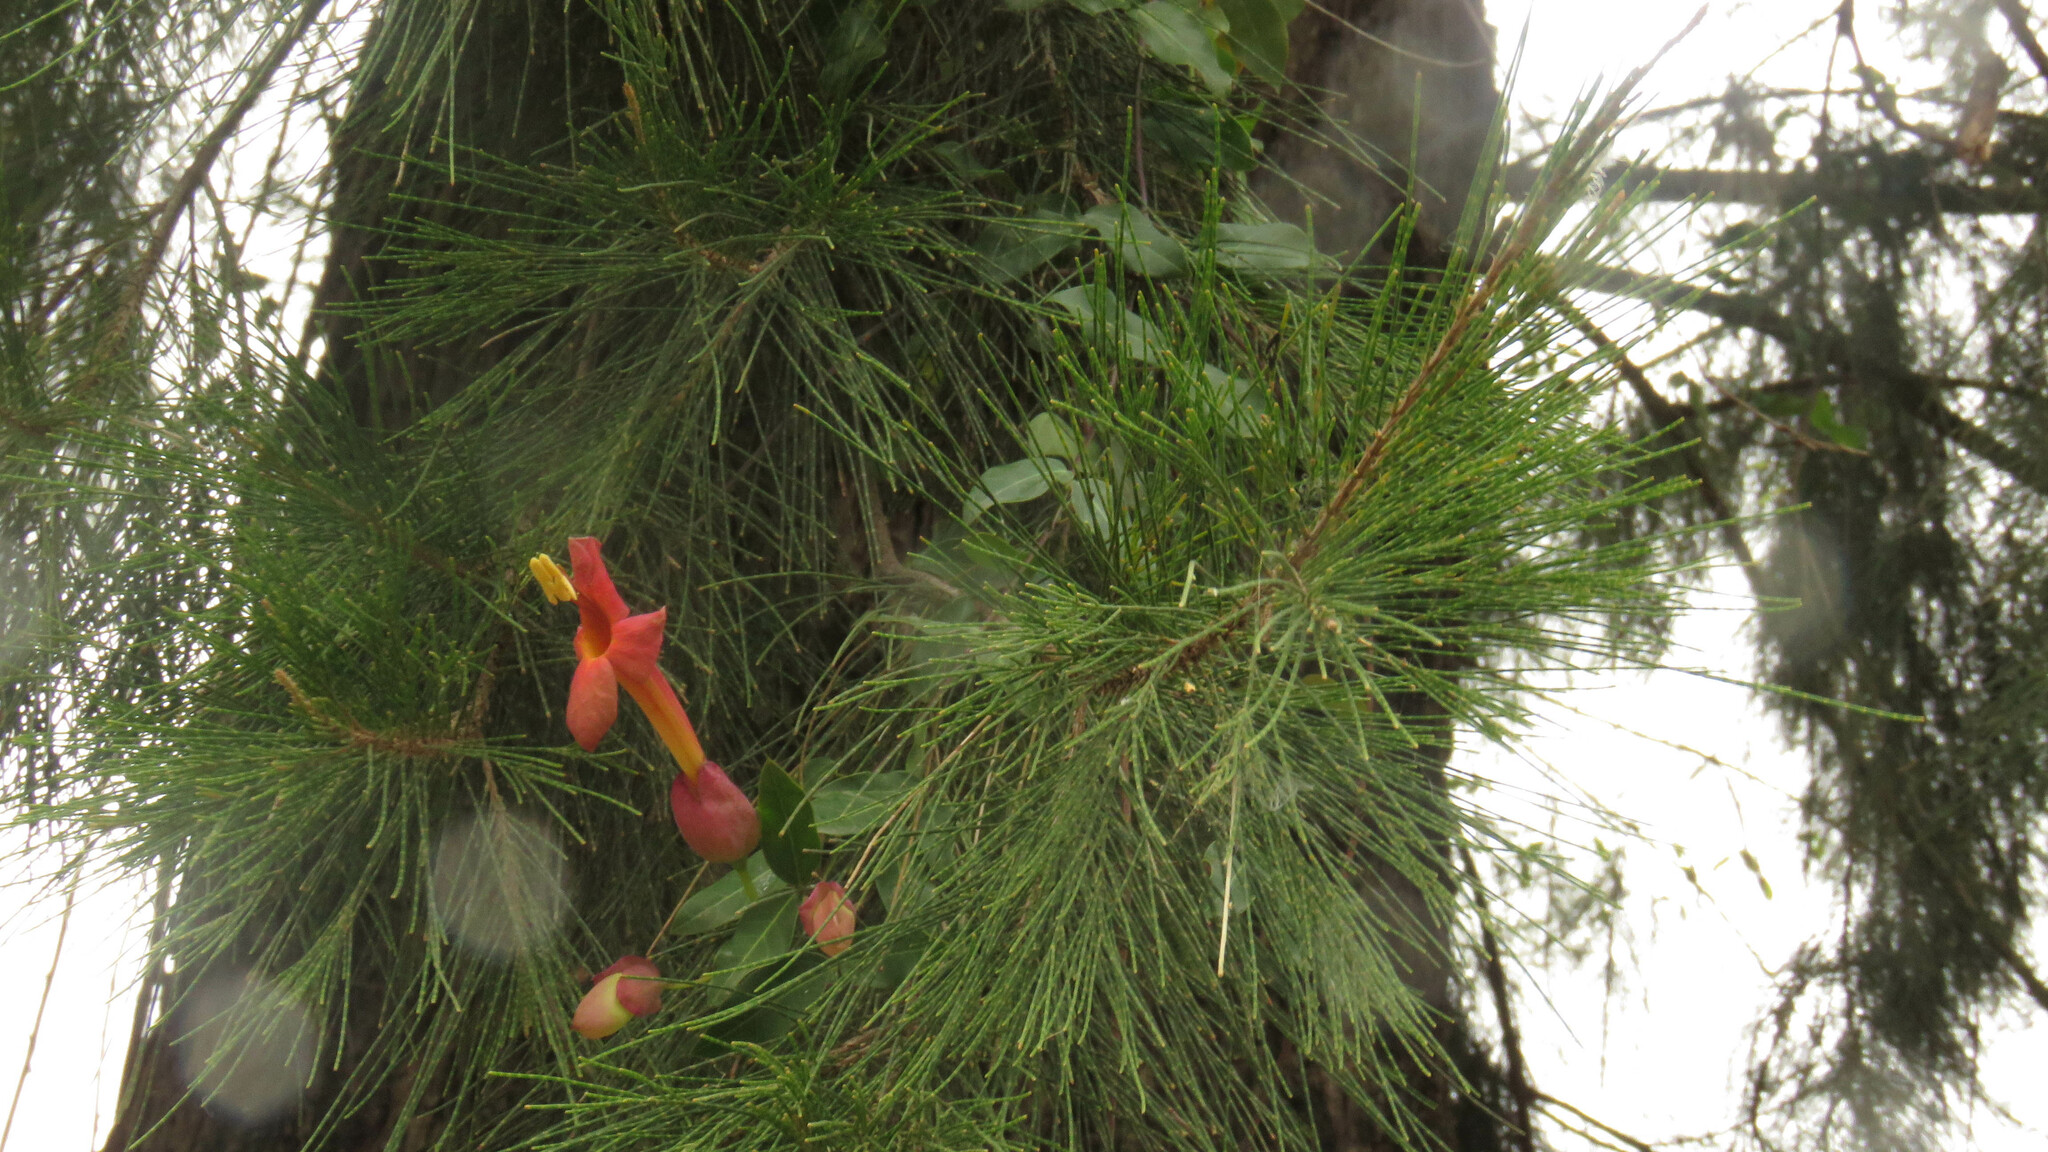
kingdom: Plantae
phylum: Tracheophyta
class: Magnoliopsida
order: Lamiales
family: Bignoniaceae
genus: Dolichandra
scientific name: Dolichandra cynanchoides
